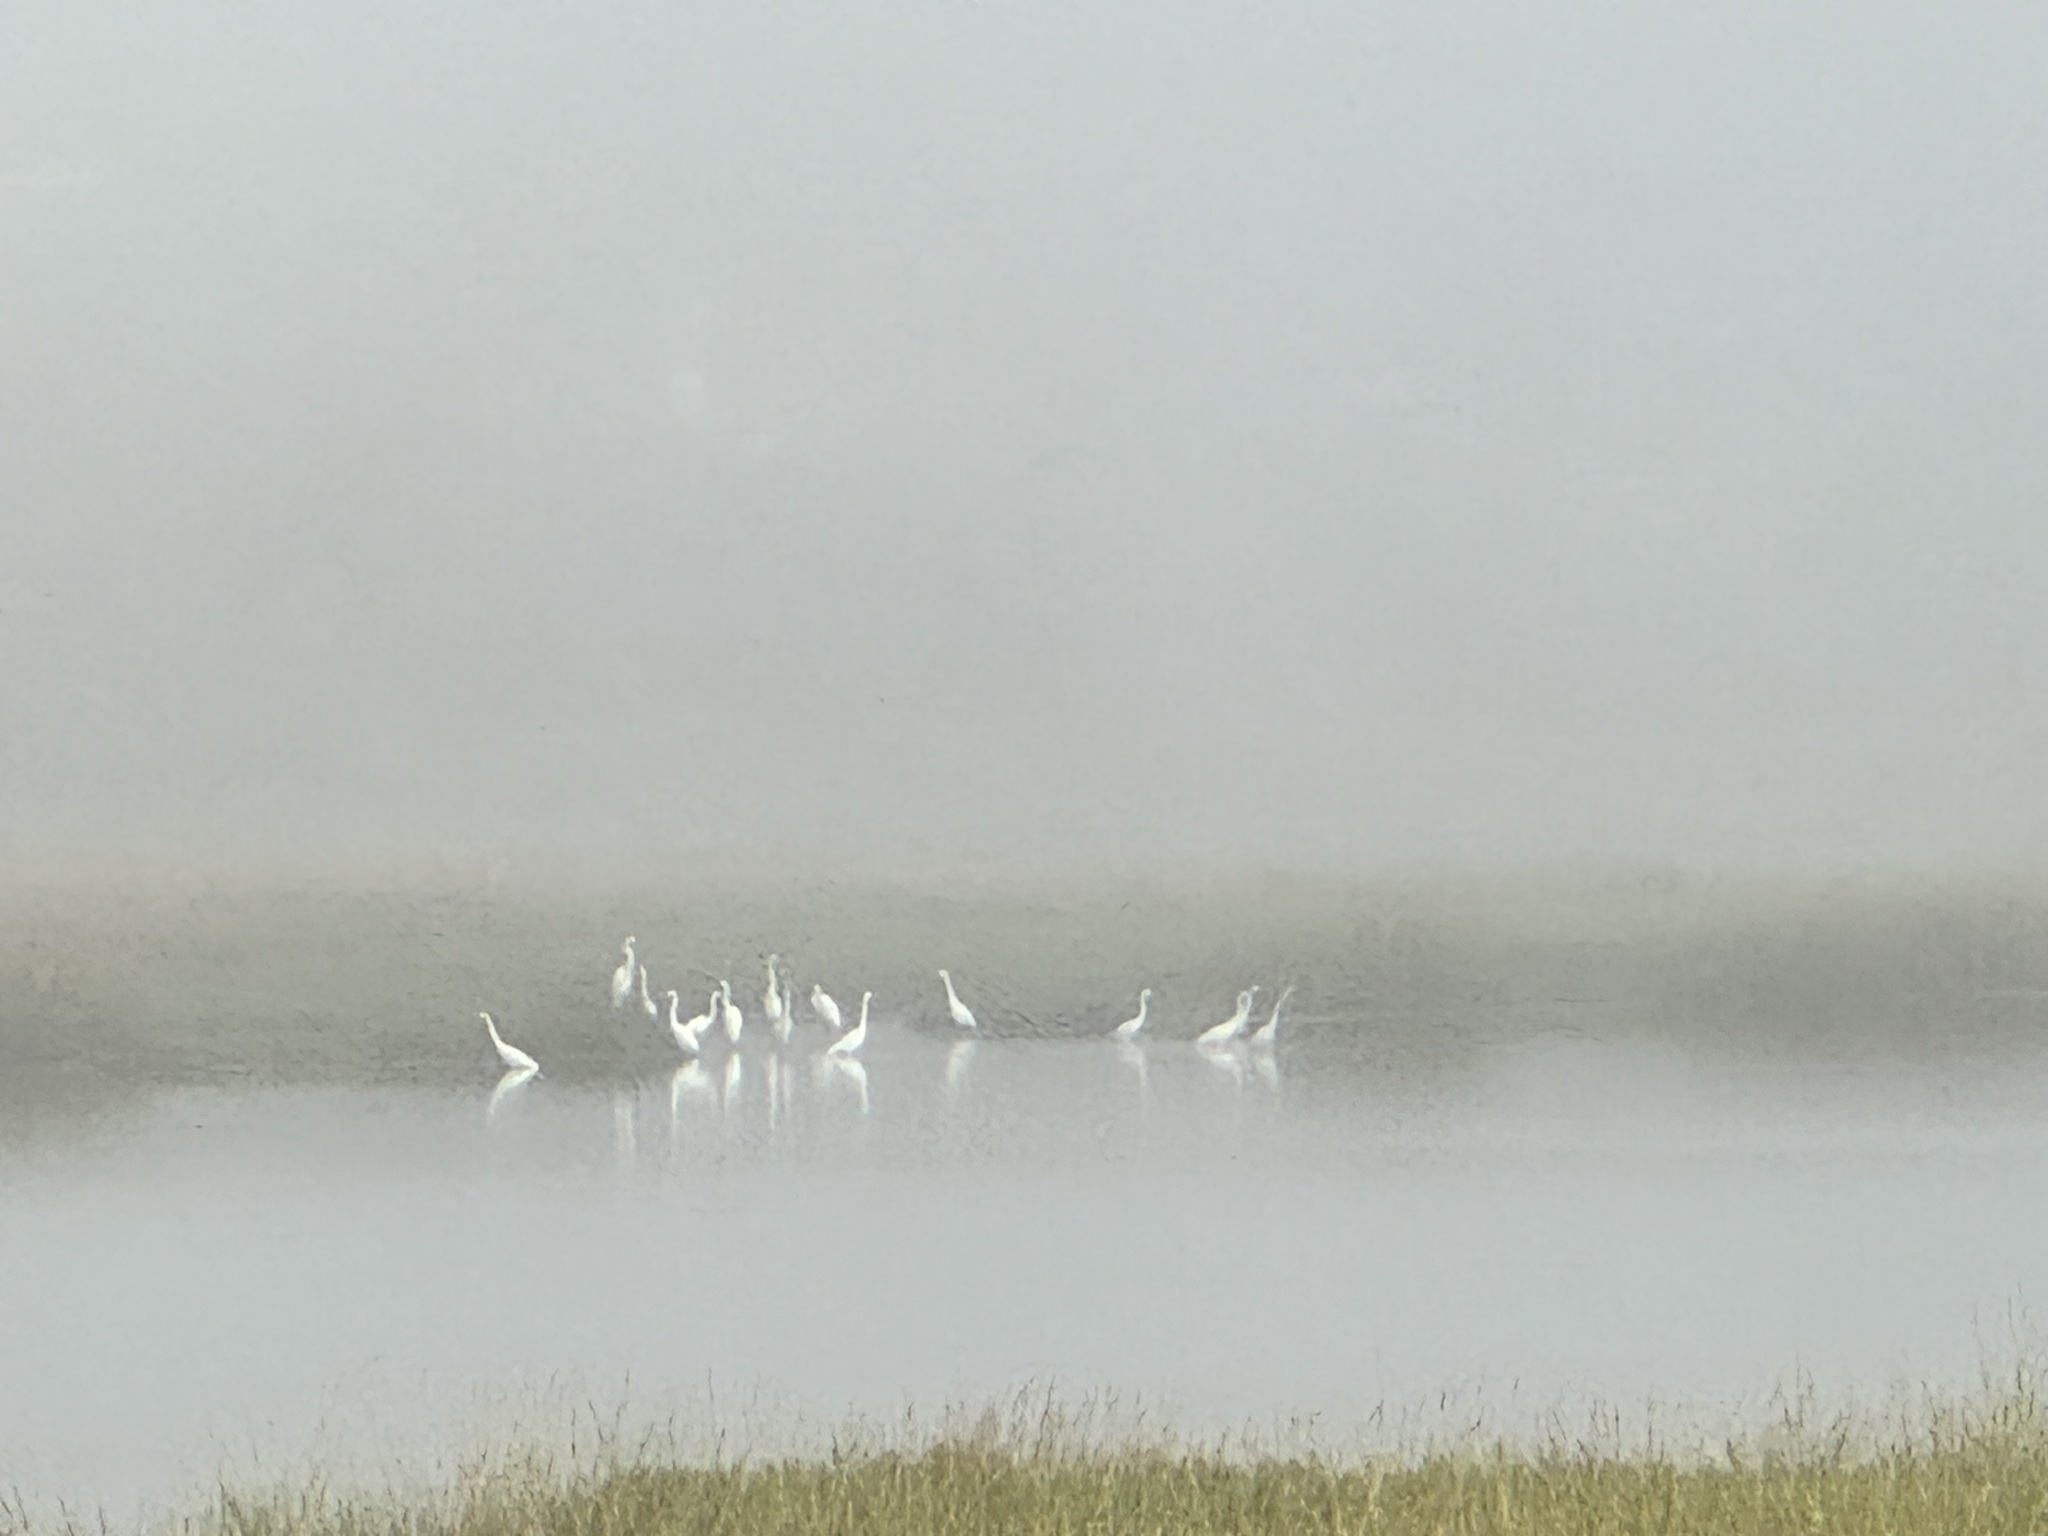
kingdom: Animalia
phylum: Chordata
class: Aves
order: Pelecaniformes
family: Ardeidae
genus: Ardea
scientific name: Ardea alba
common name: Great egret
